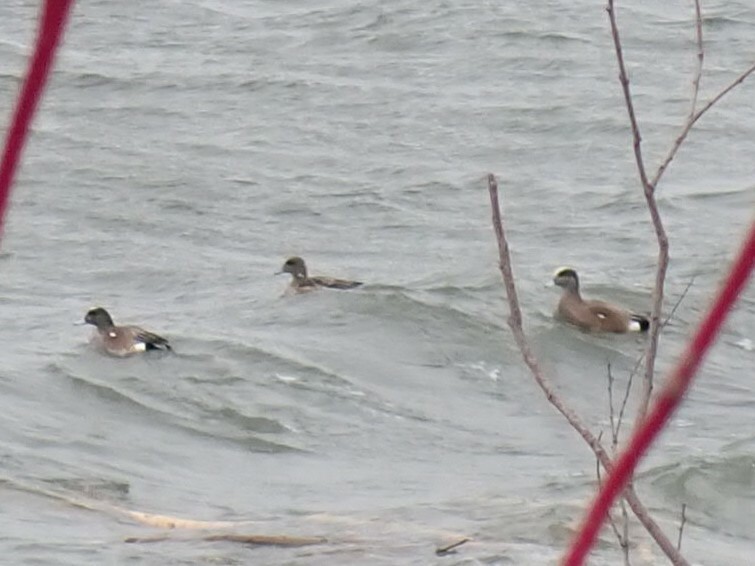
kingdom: Animalia
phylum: Chordata
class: Aves
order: Anseriformes
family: Anatidae
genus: Mareca
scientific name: Mareca americana
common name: American wigeon
